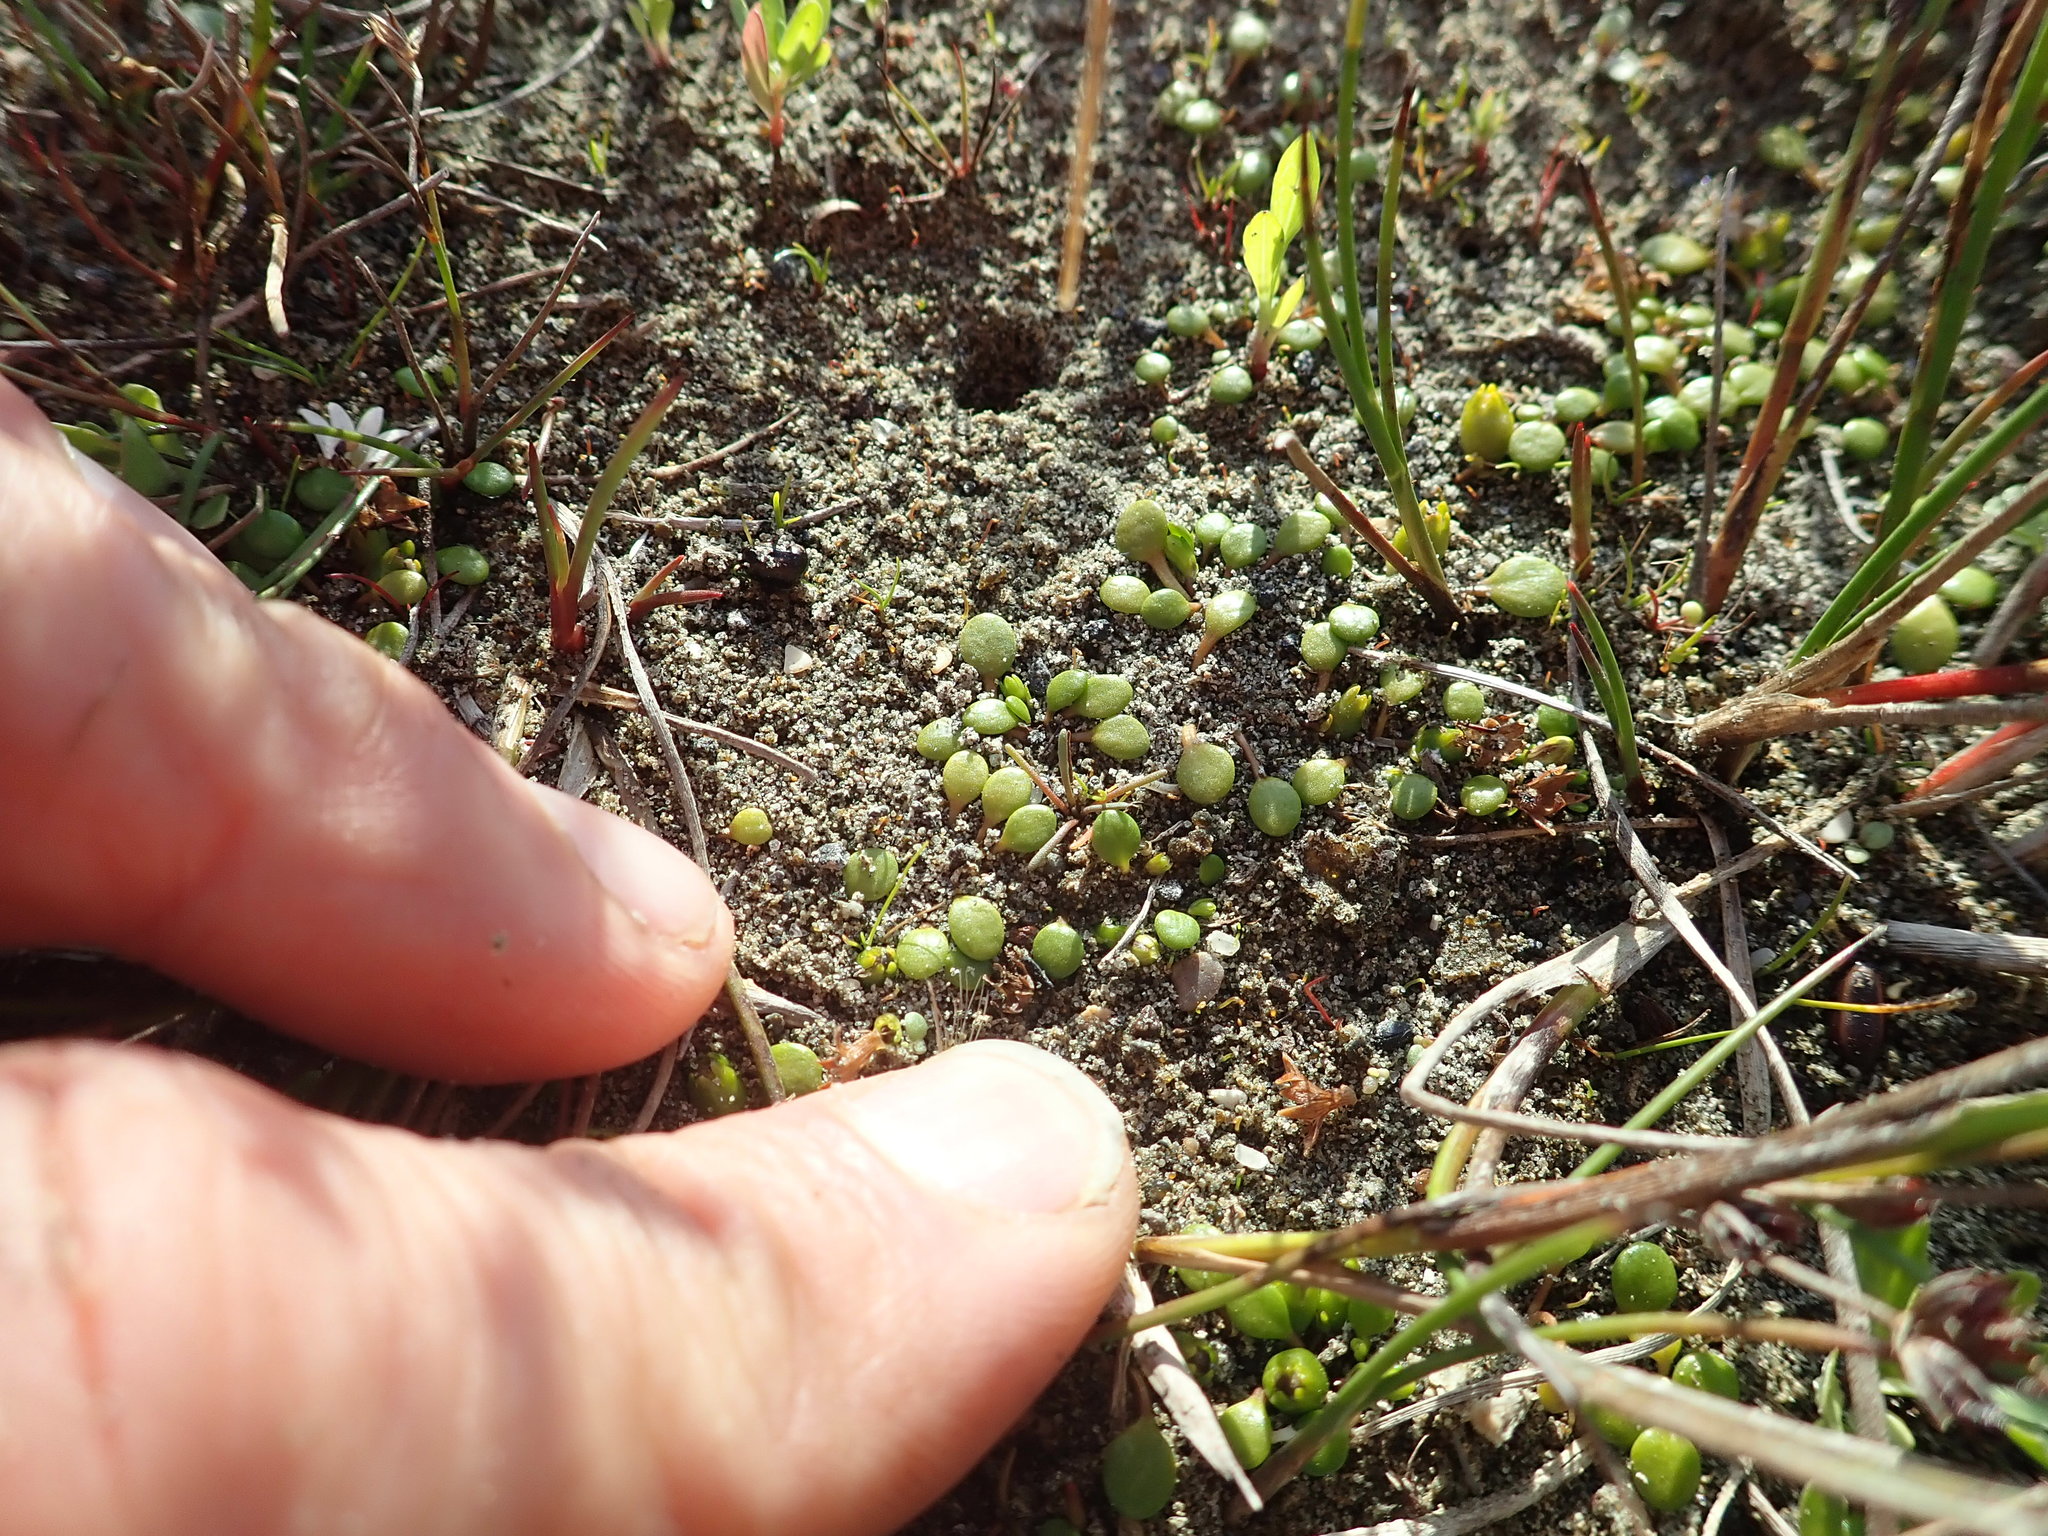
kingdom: Plantae
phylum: Tracheophyta
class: Magnoliopsida
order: Lamiales
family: Scrophulariaceae
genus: Limosella
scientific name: Limosella australis
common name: Welsh mudwort
